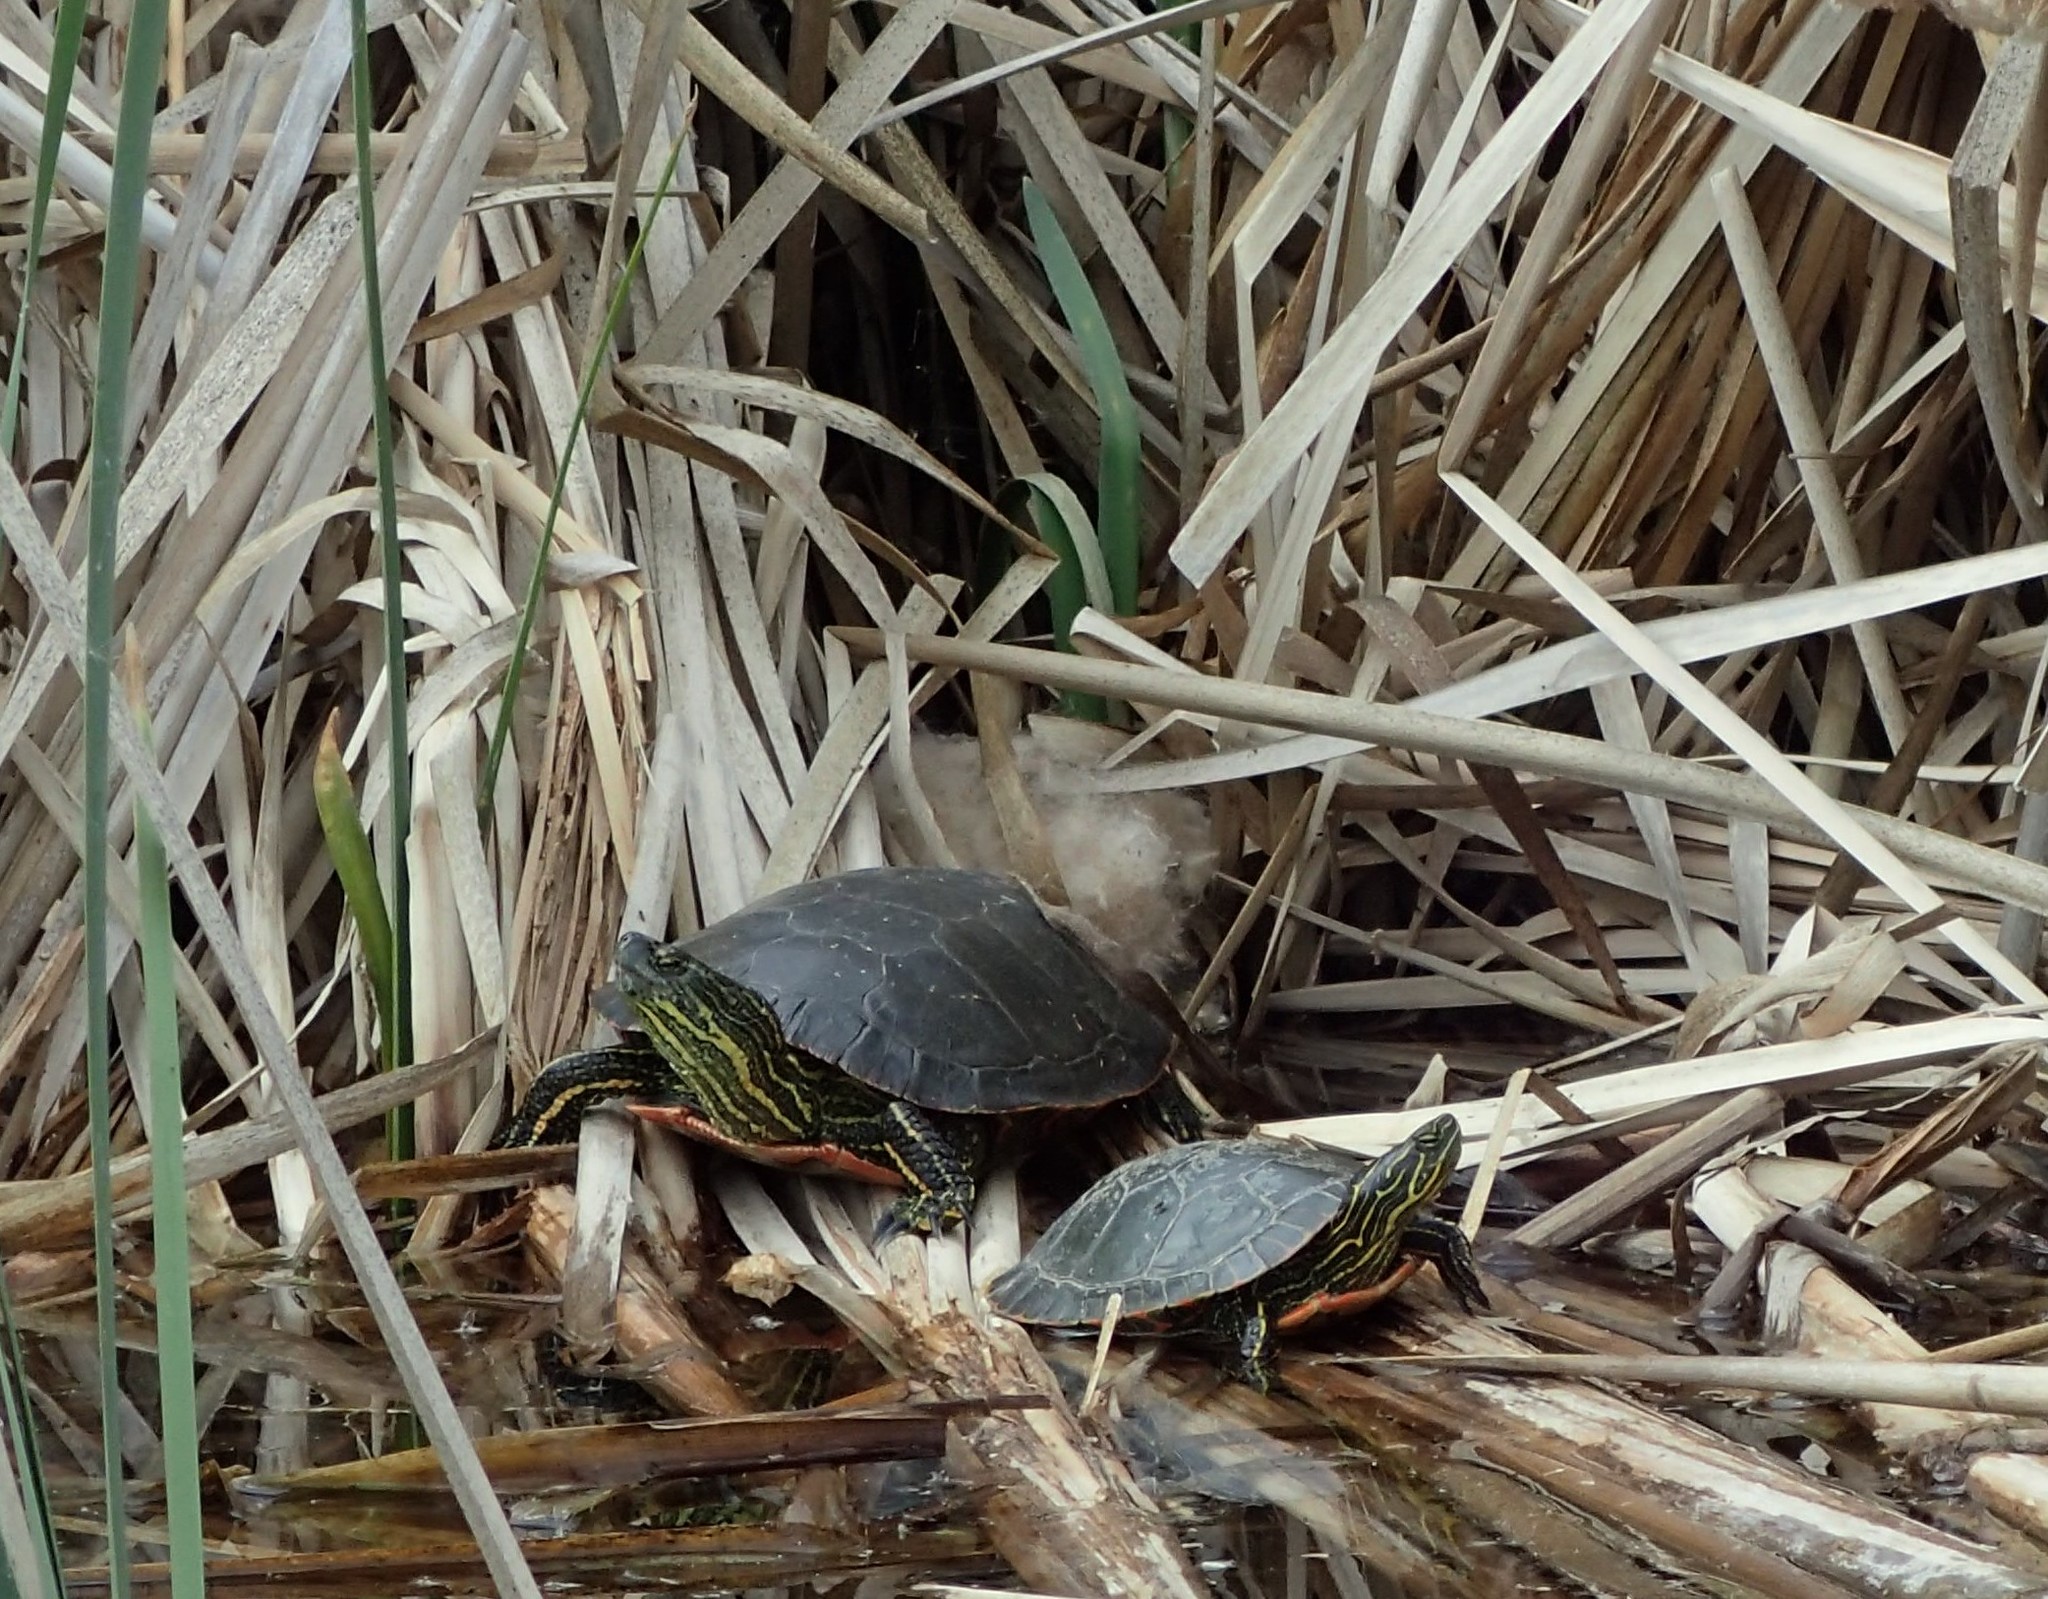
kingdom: Animalia
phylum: Chordata
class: Testudines
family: Emydidae
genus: Chrysemys
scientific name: Chrysemys picta
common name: Painted turtle
